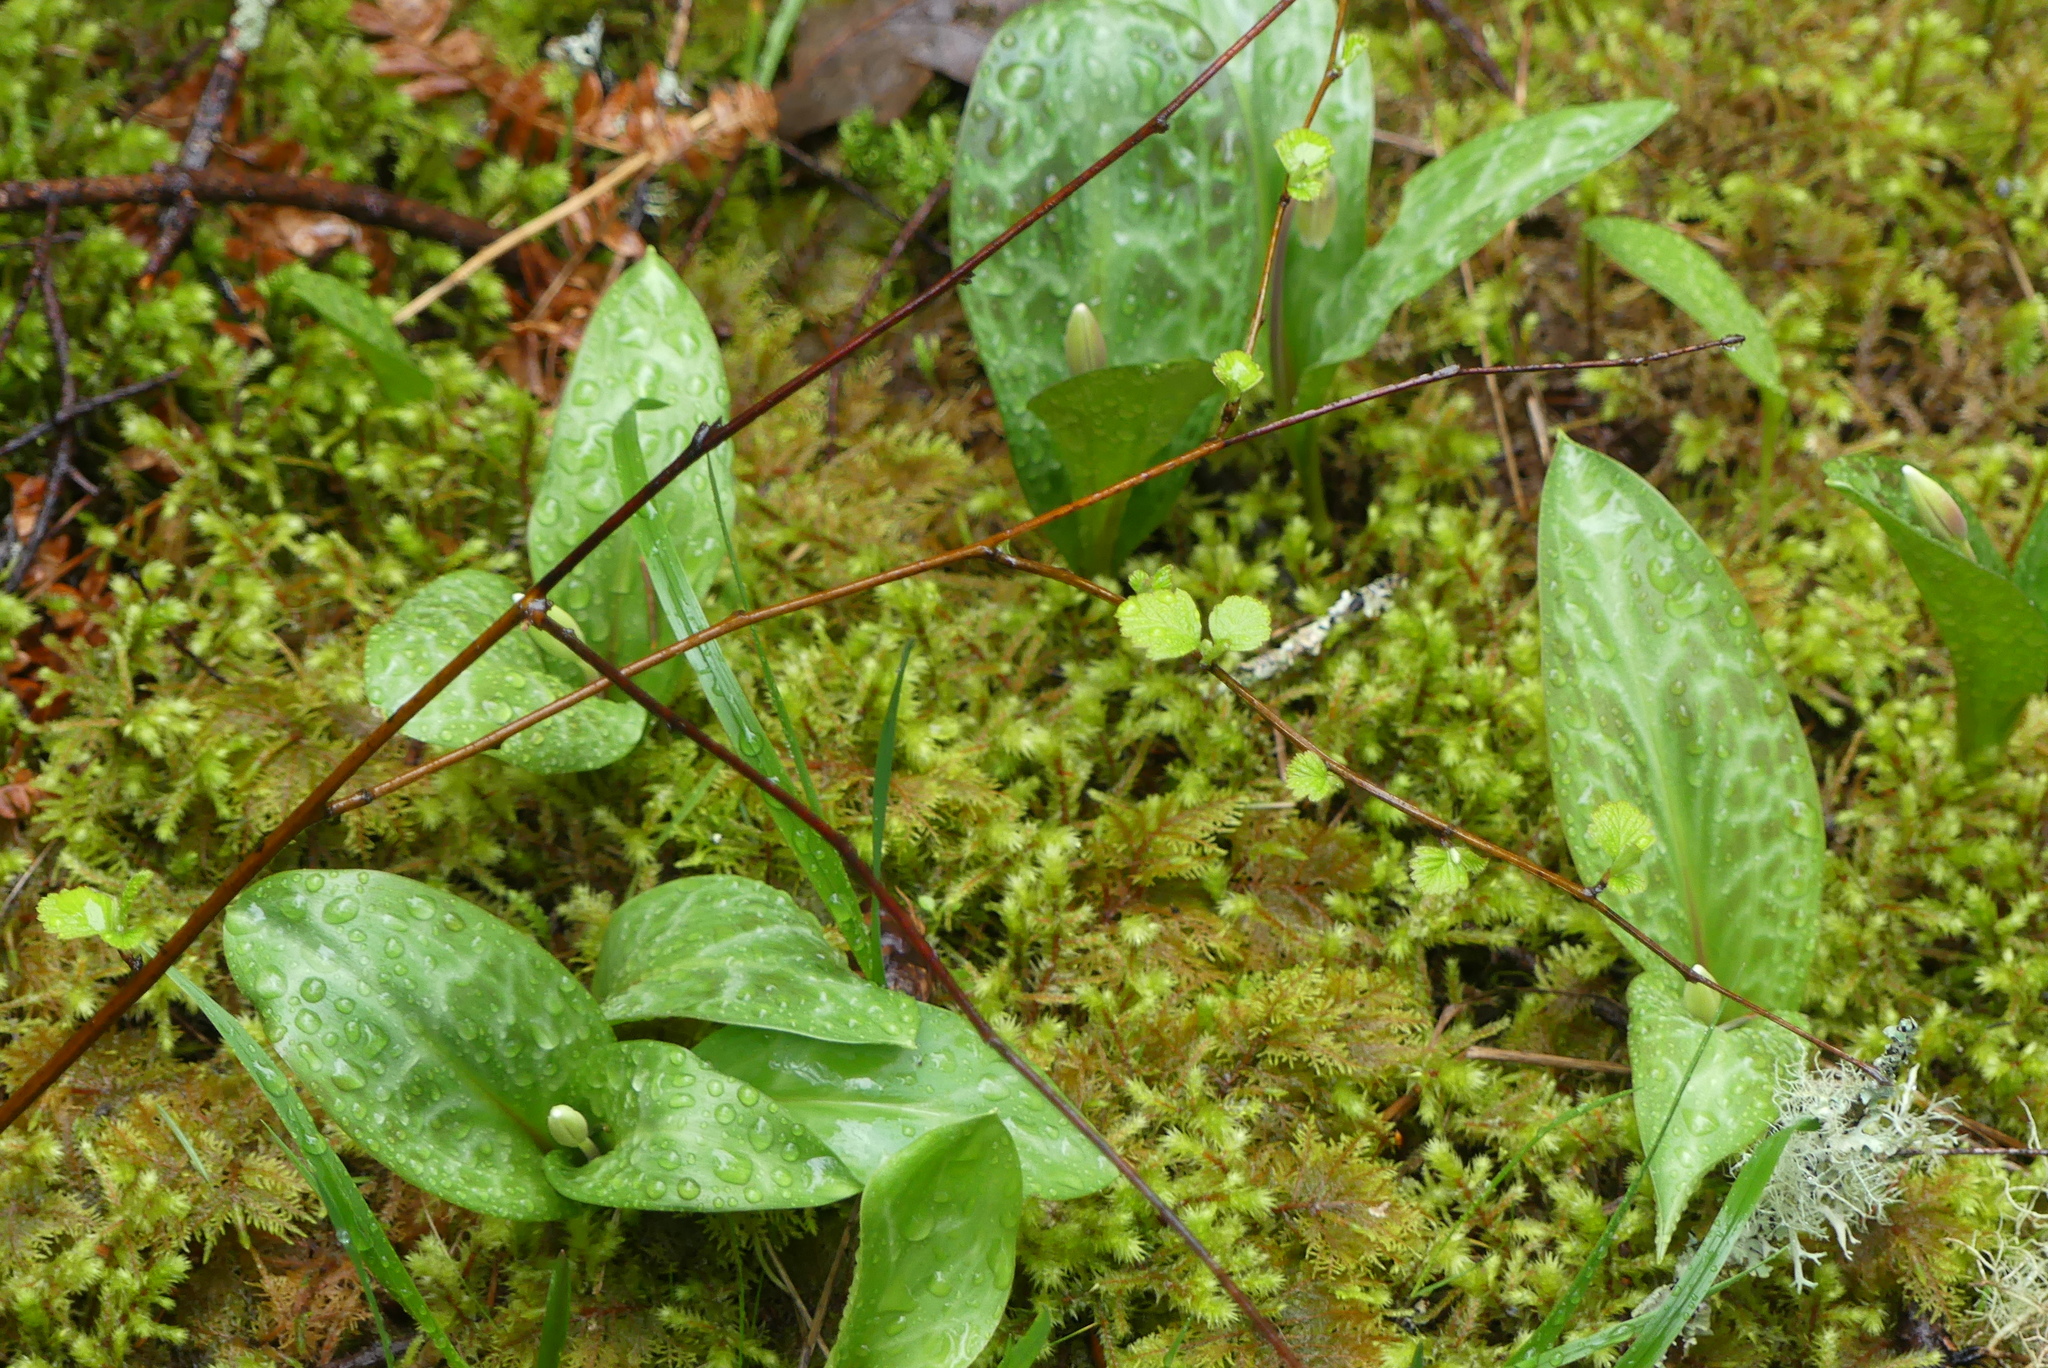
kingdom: Plantae
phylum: Tracheophyta
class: Liliopsida
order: Liliales
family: Liliaceae
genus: Erythronium
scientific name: Erythronium oregonum
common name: Giant adder's-tongue
